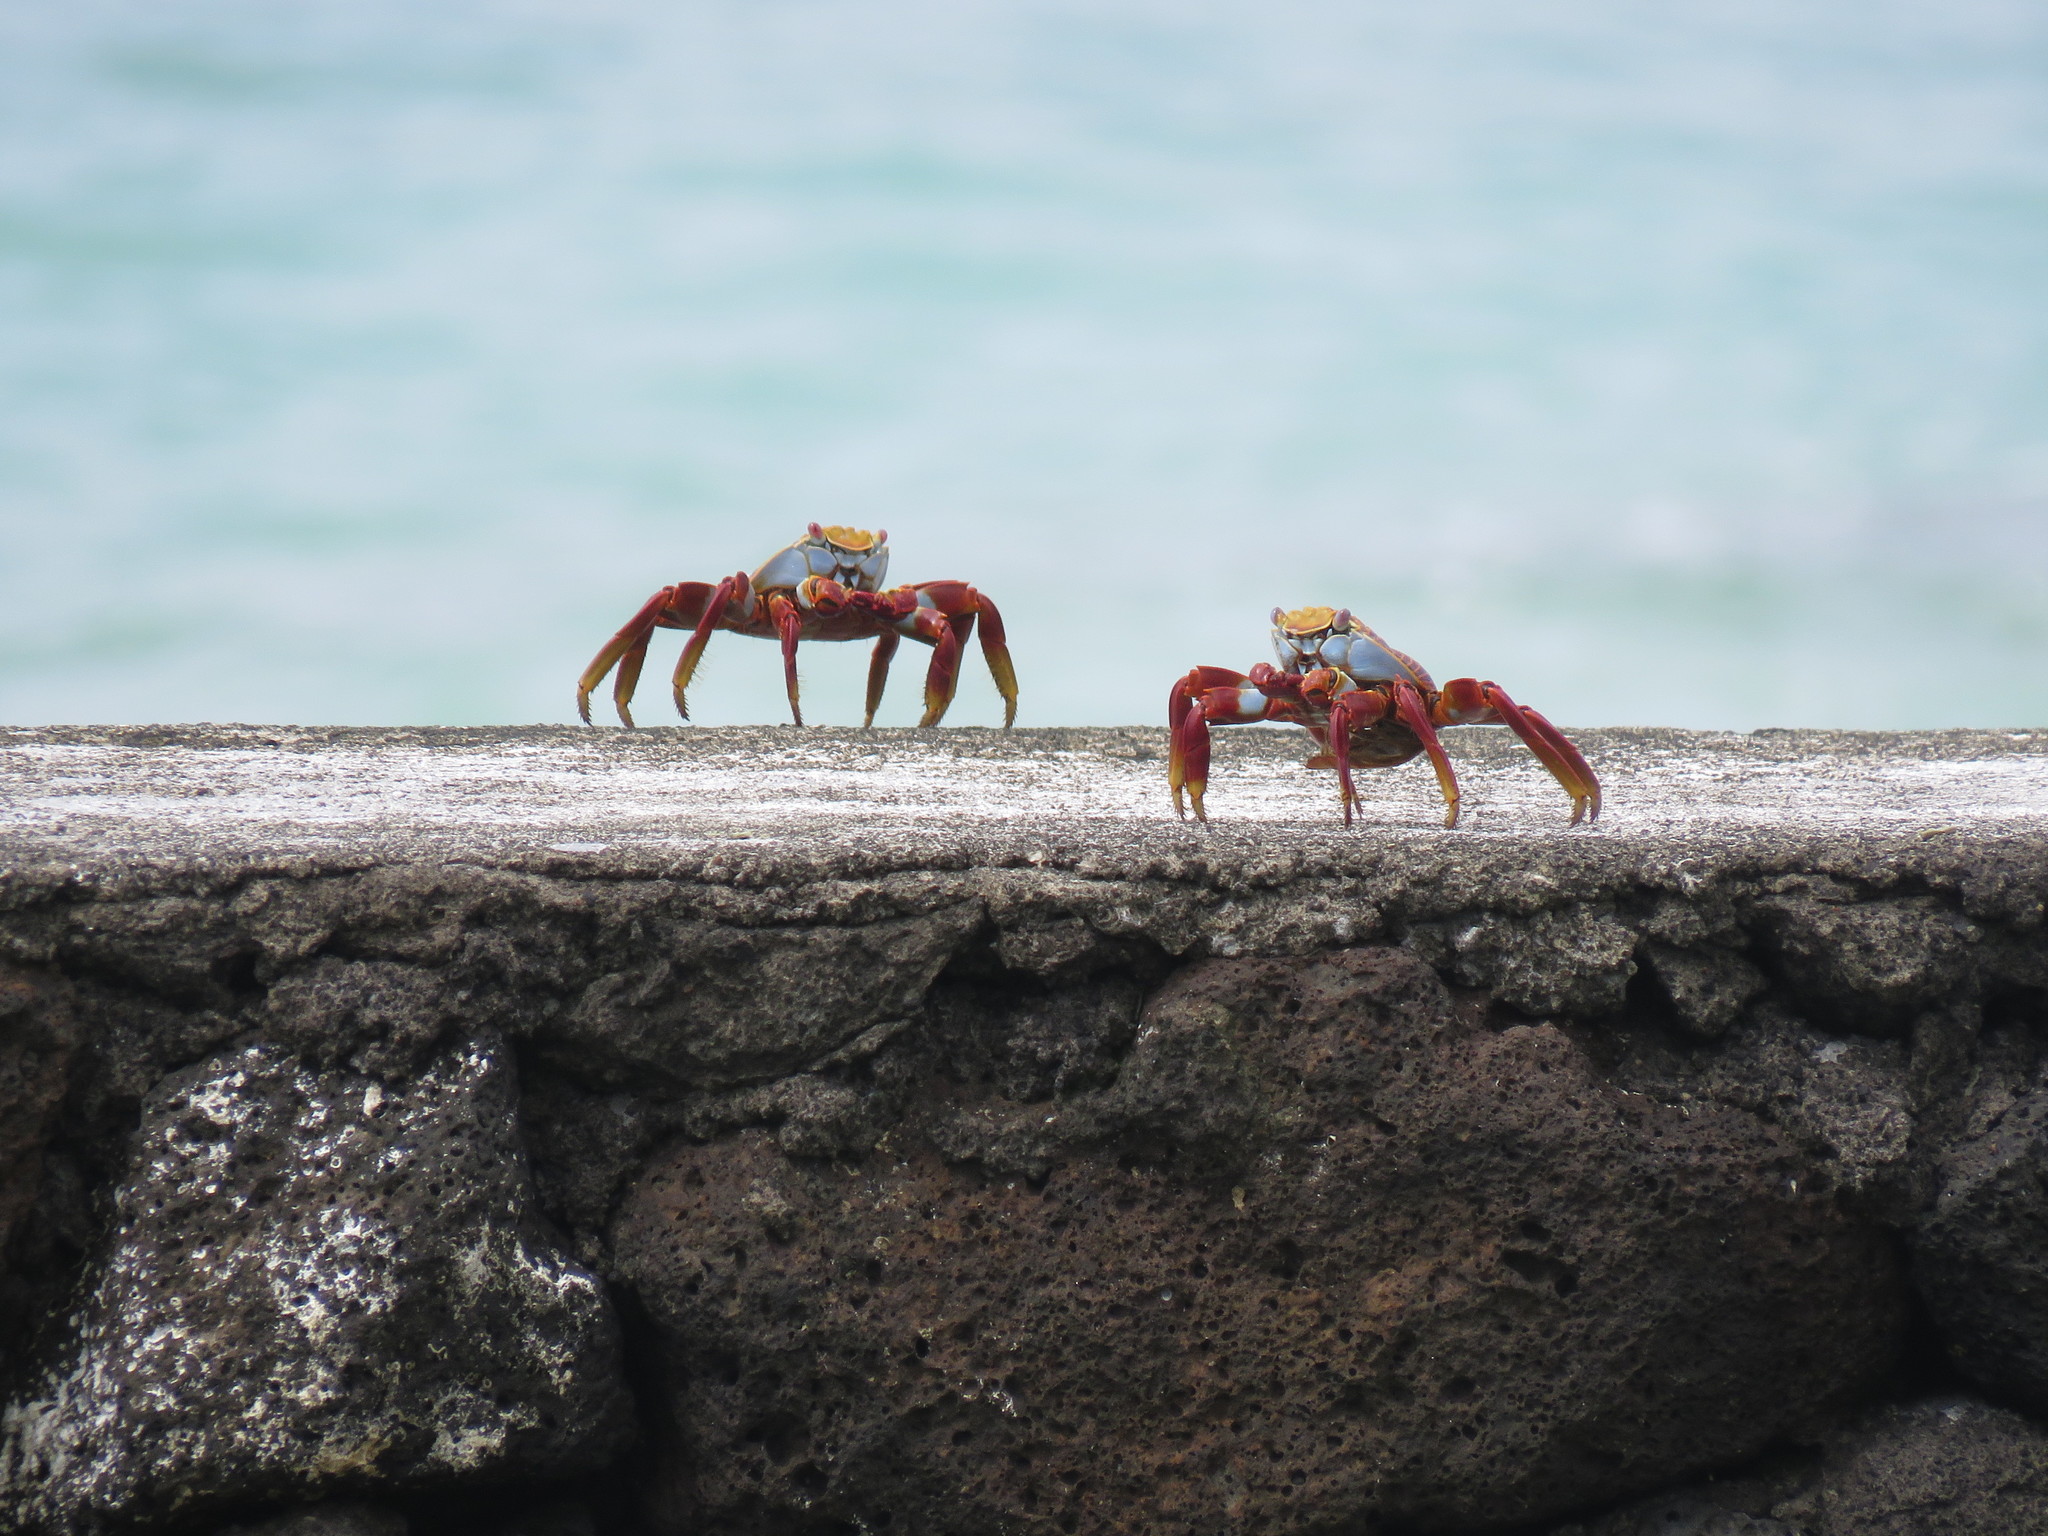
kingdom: Animalia
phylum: Arthropoda
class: Malacostraca
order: Decapoda
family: Grapsidae
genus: Grapsus
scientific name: Grapsus grapsus
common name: Sally lightfoot
